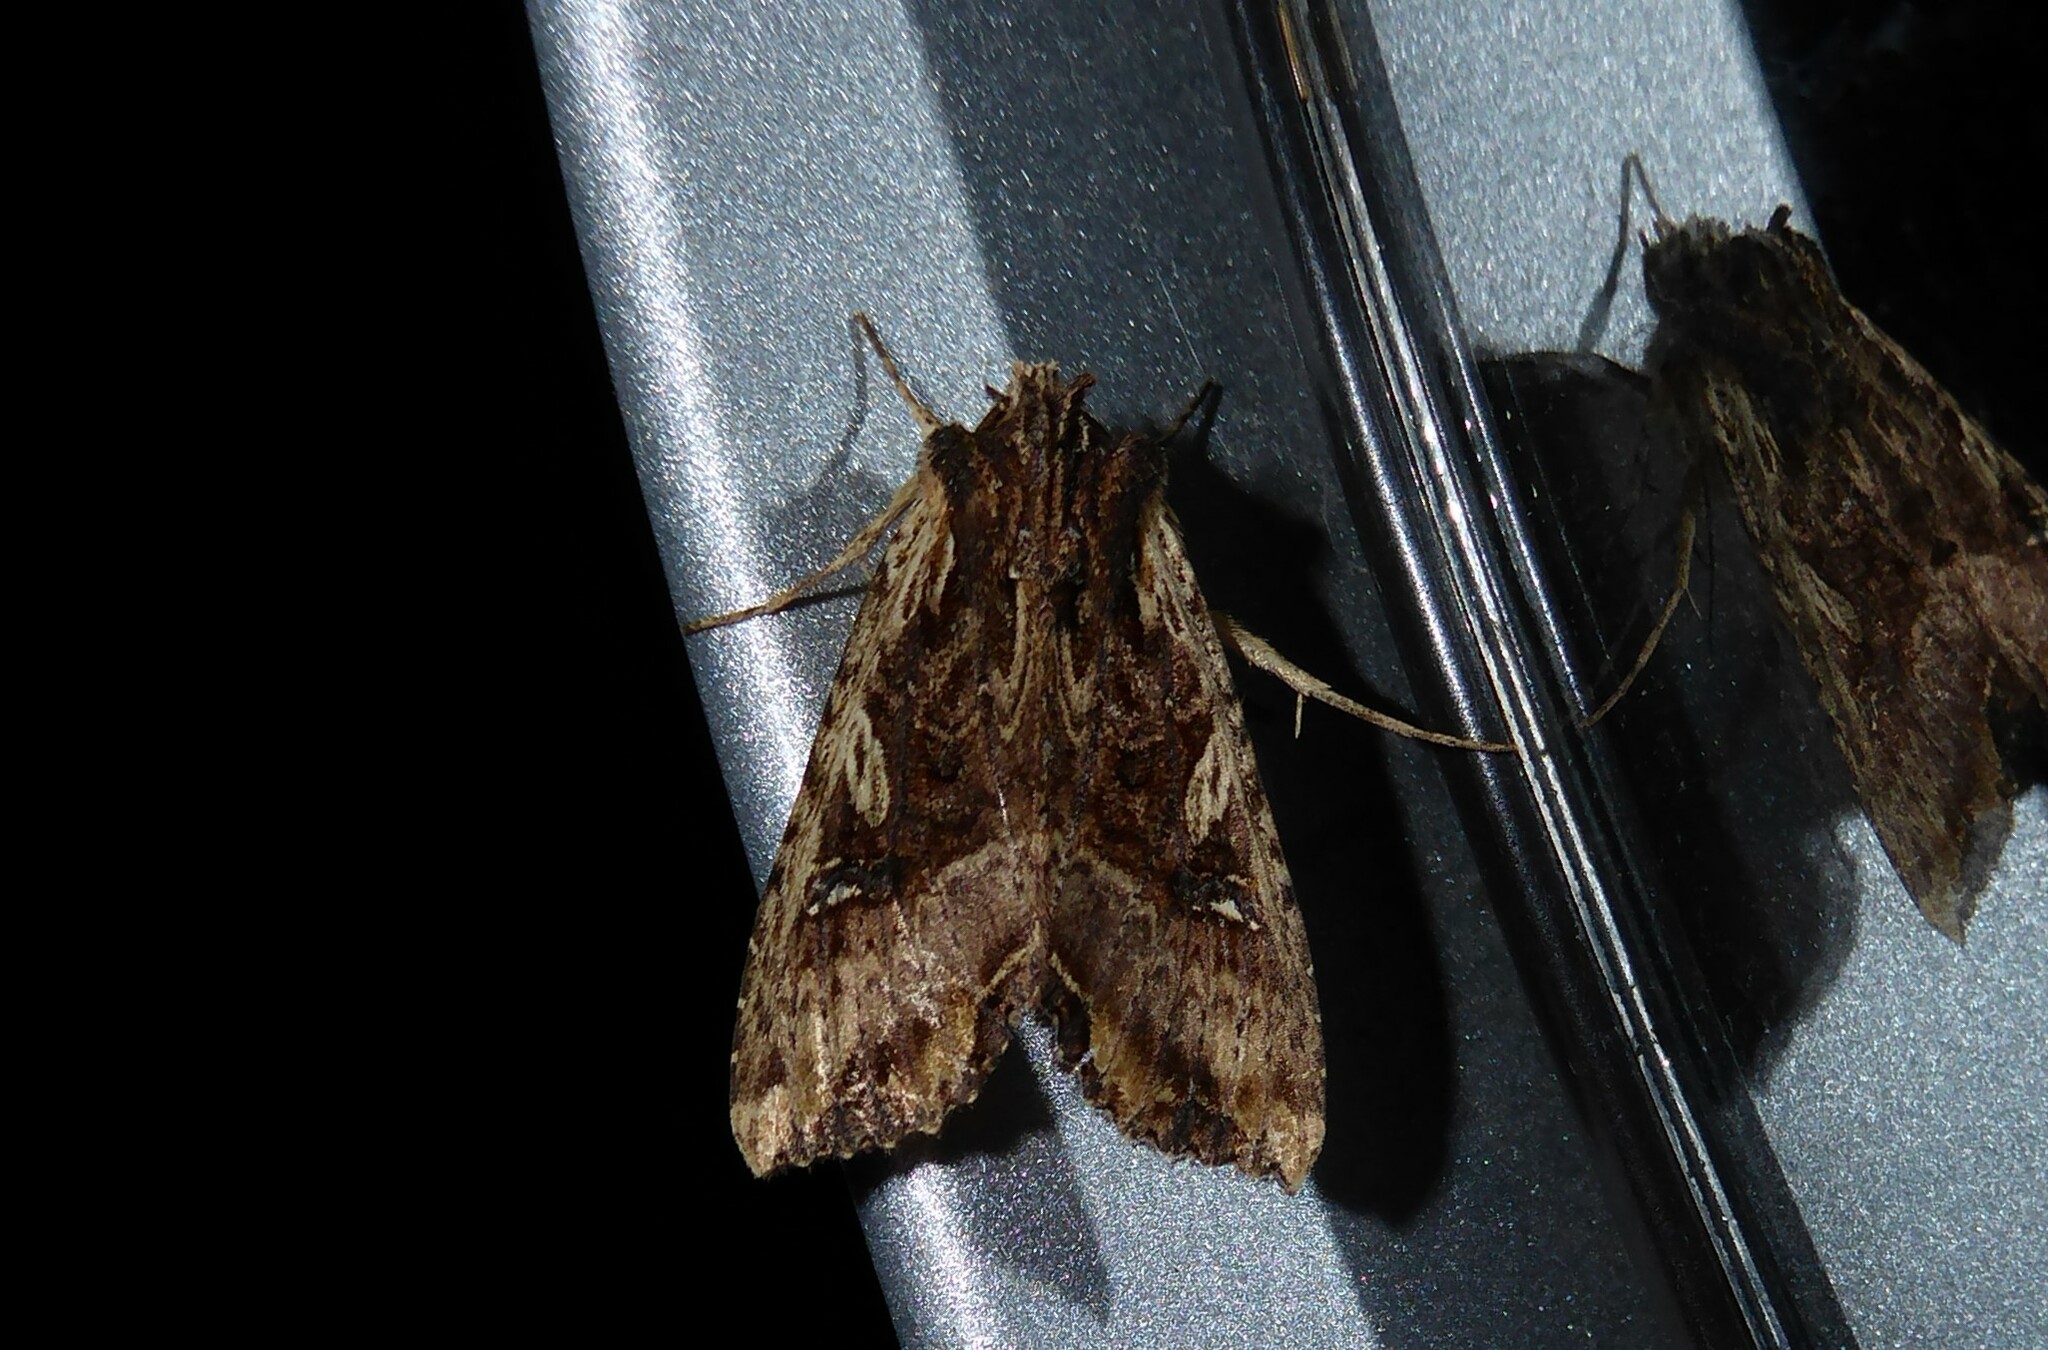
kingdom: Animalia
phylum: Arthropoda
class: Insecta
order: Lepidoptera
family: Noctuidae
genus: Meterana
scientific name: Meterana stipata
